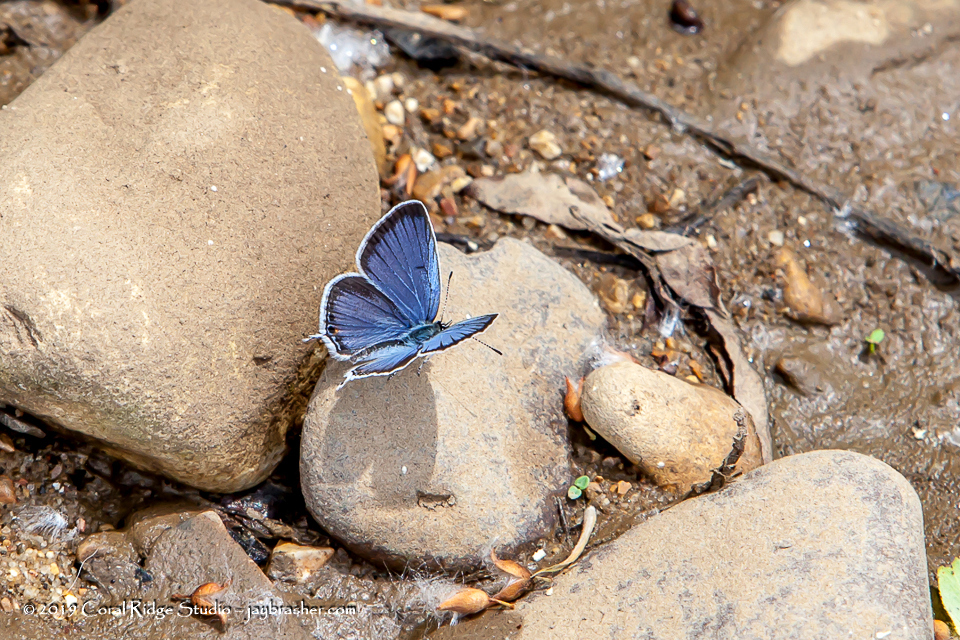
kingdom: Animalia
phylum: Arthropoda
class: Insecta
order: Lepidoptera
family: Lycaenidae
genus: Elkalyce
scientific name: Elkalyce comyntas
